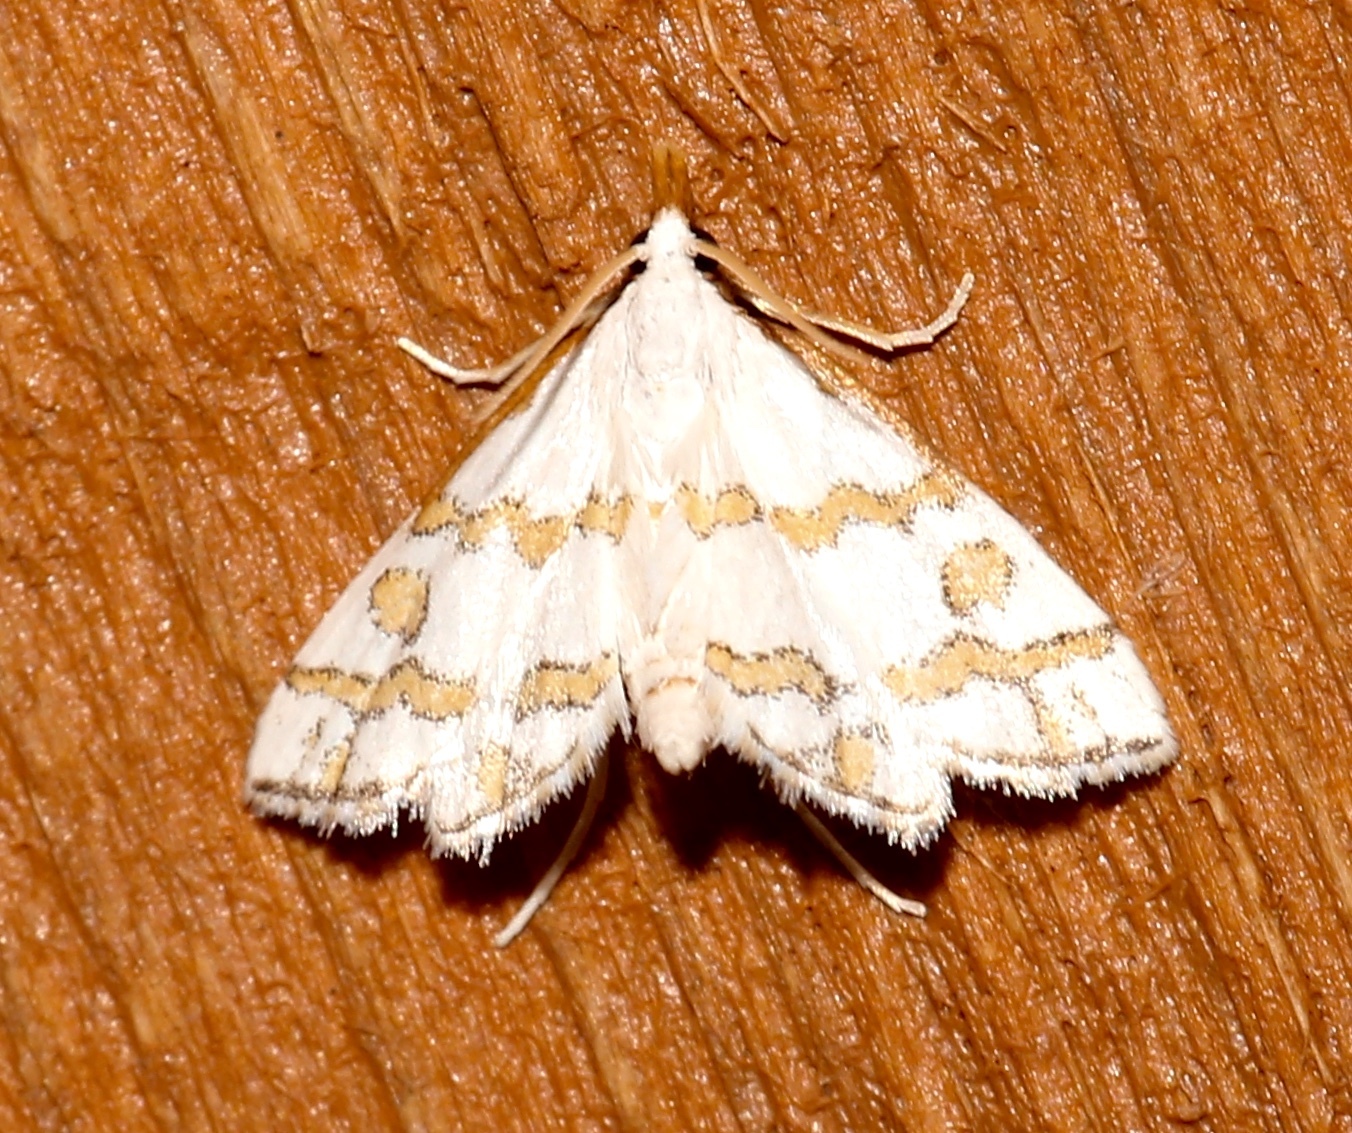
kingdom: Animalia
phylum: Arthropoda
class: Insecta
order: Lepidoptera
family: Crambidae
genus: Leptosteges
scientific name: Leptosteges
